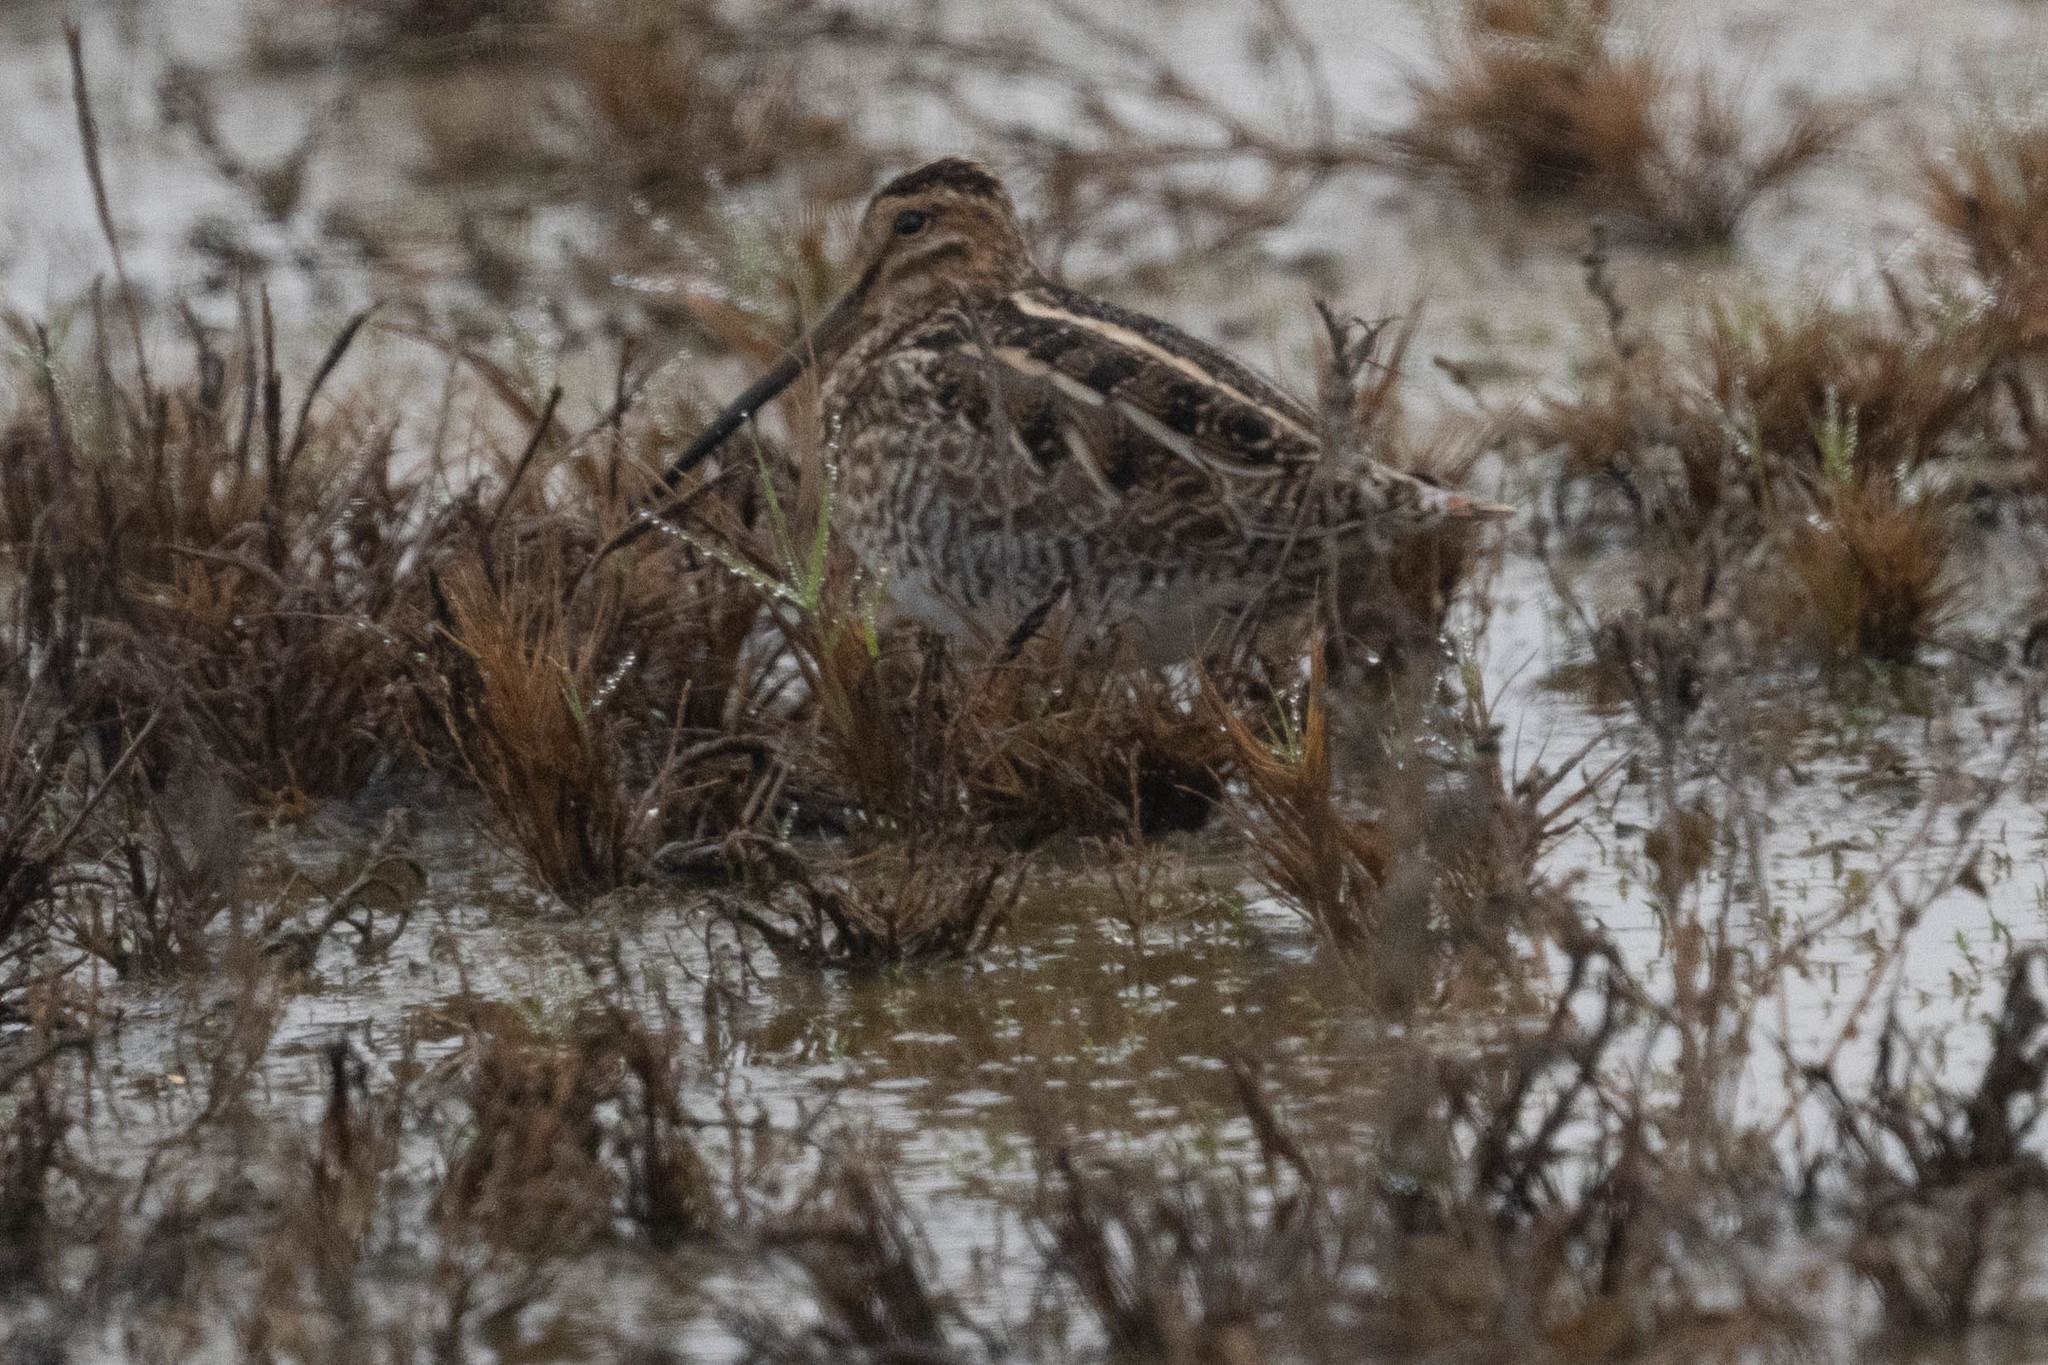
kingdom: Animalia
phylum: Chordata
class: Aves
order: Charadriiformes
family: Scolopacidae
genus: Gallinago
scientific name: Gallinago delicata
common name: Wilson's snipe
